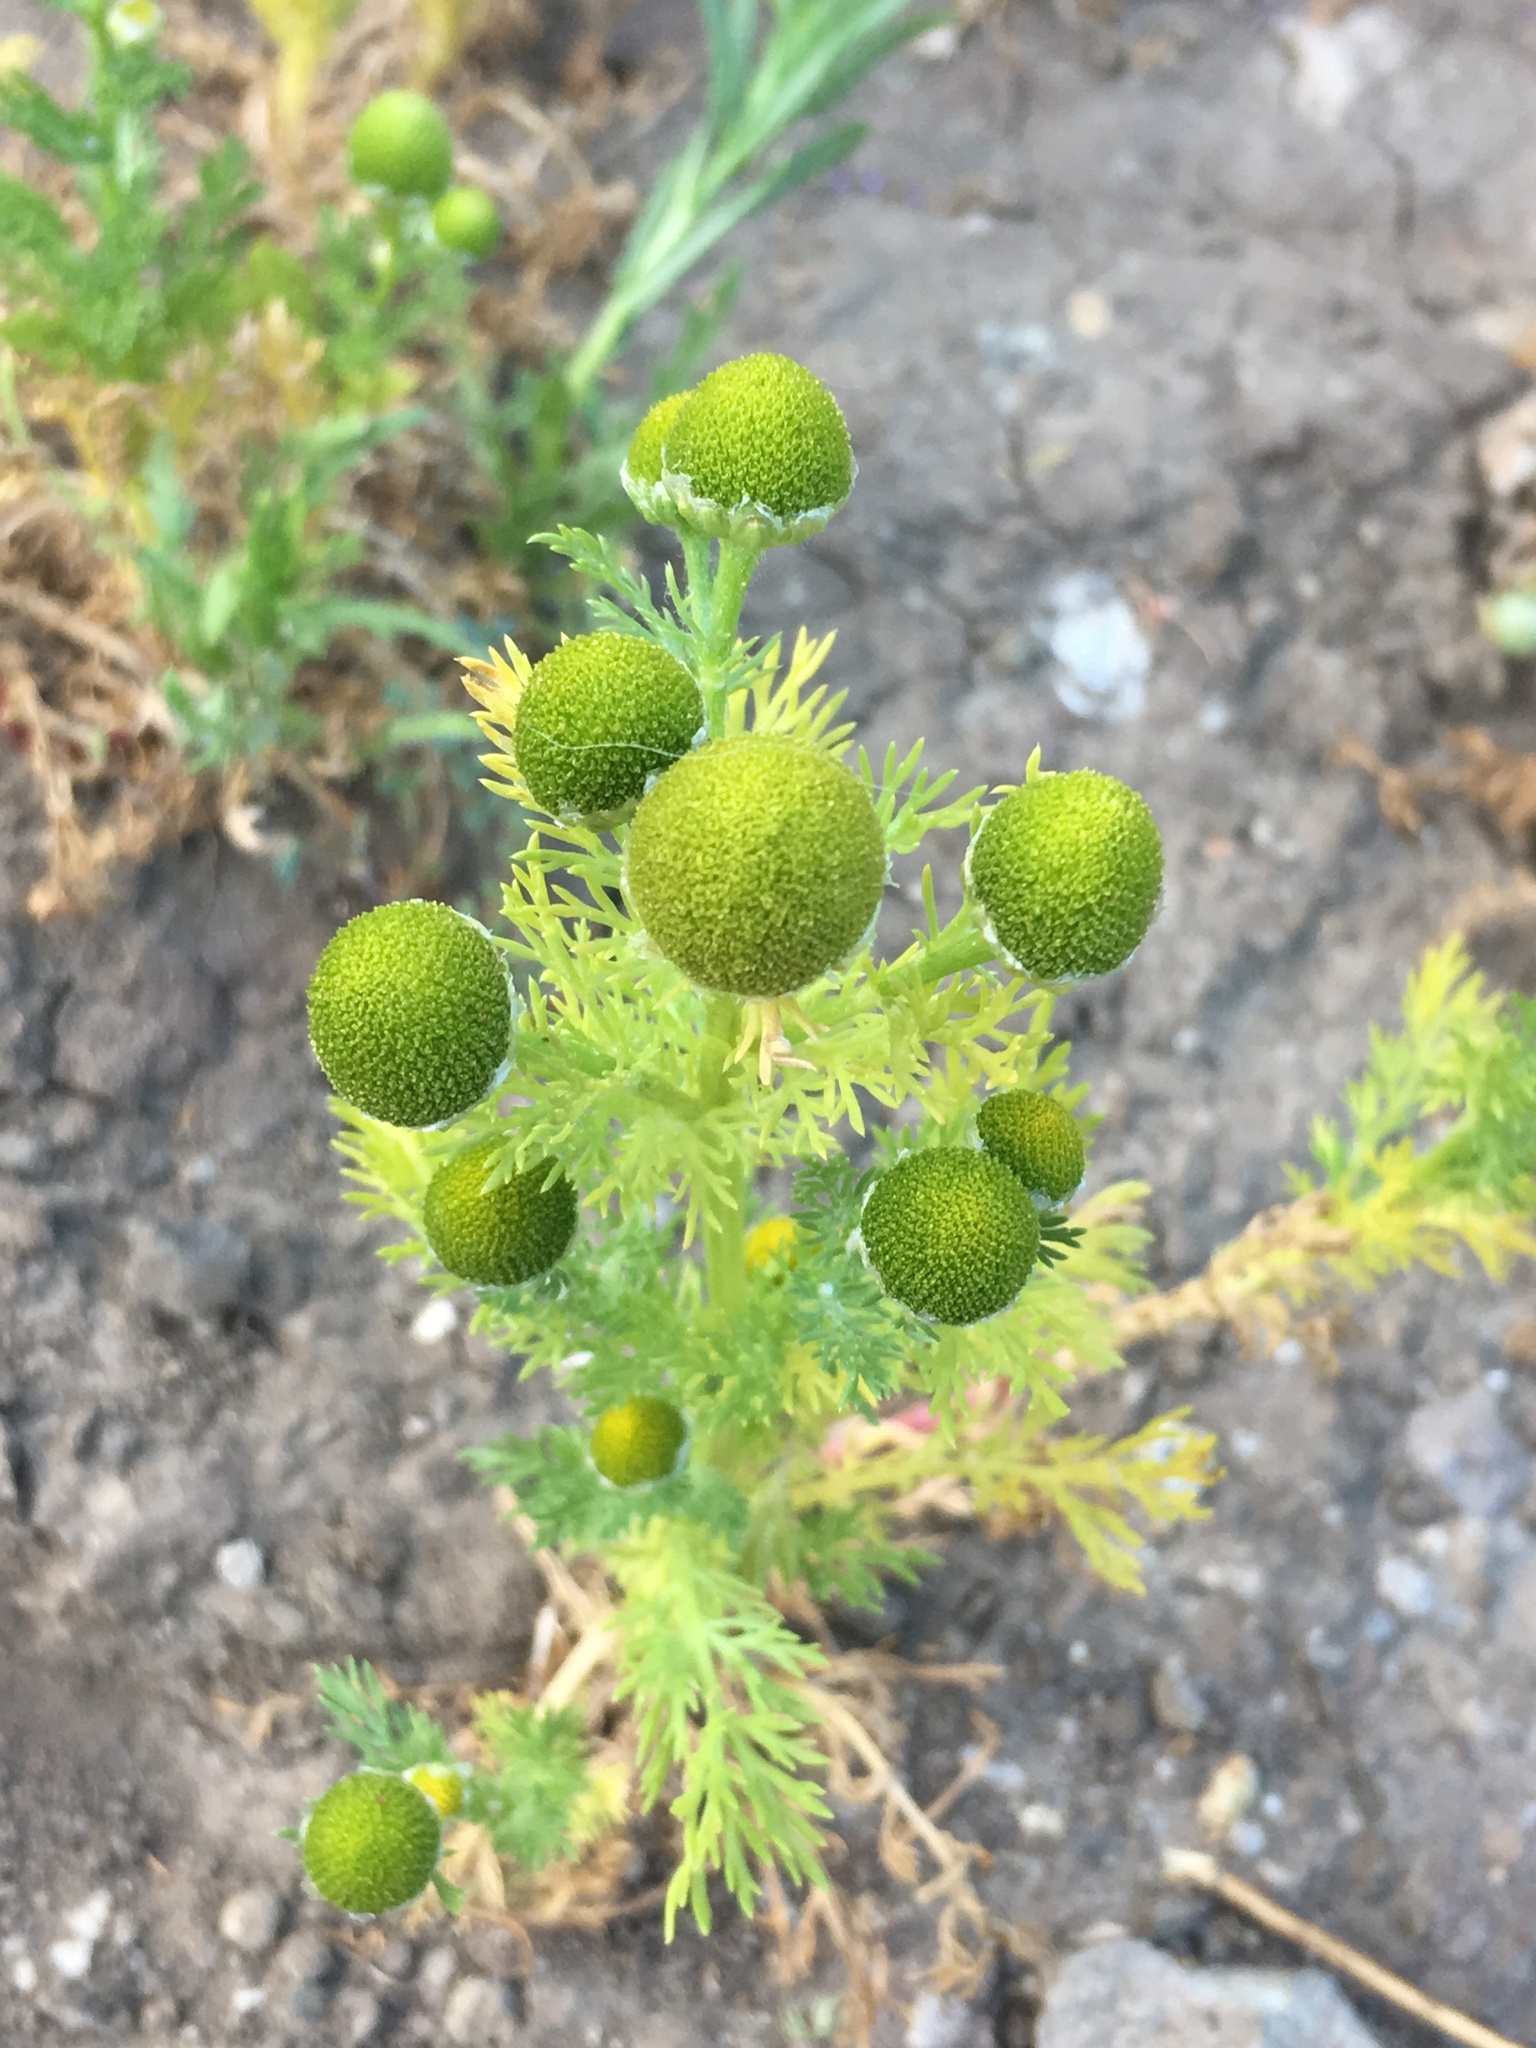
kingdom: Plantae
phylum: Tracheophyta
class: Magnoliopsida
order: Asterales
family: Asteraceae
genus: Matricaria
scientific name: Matricaria discoidea
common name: Disc mayweed
